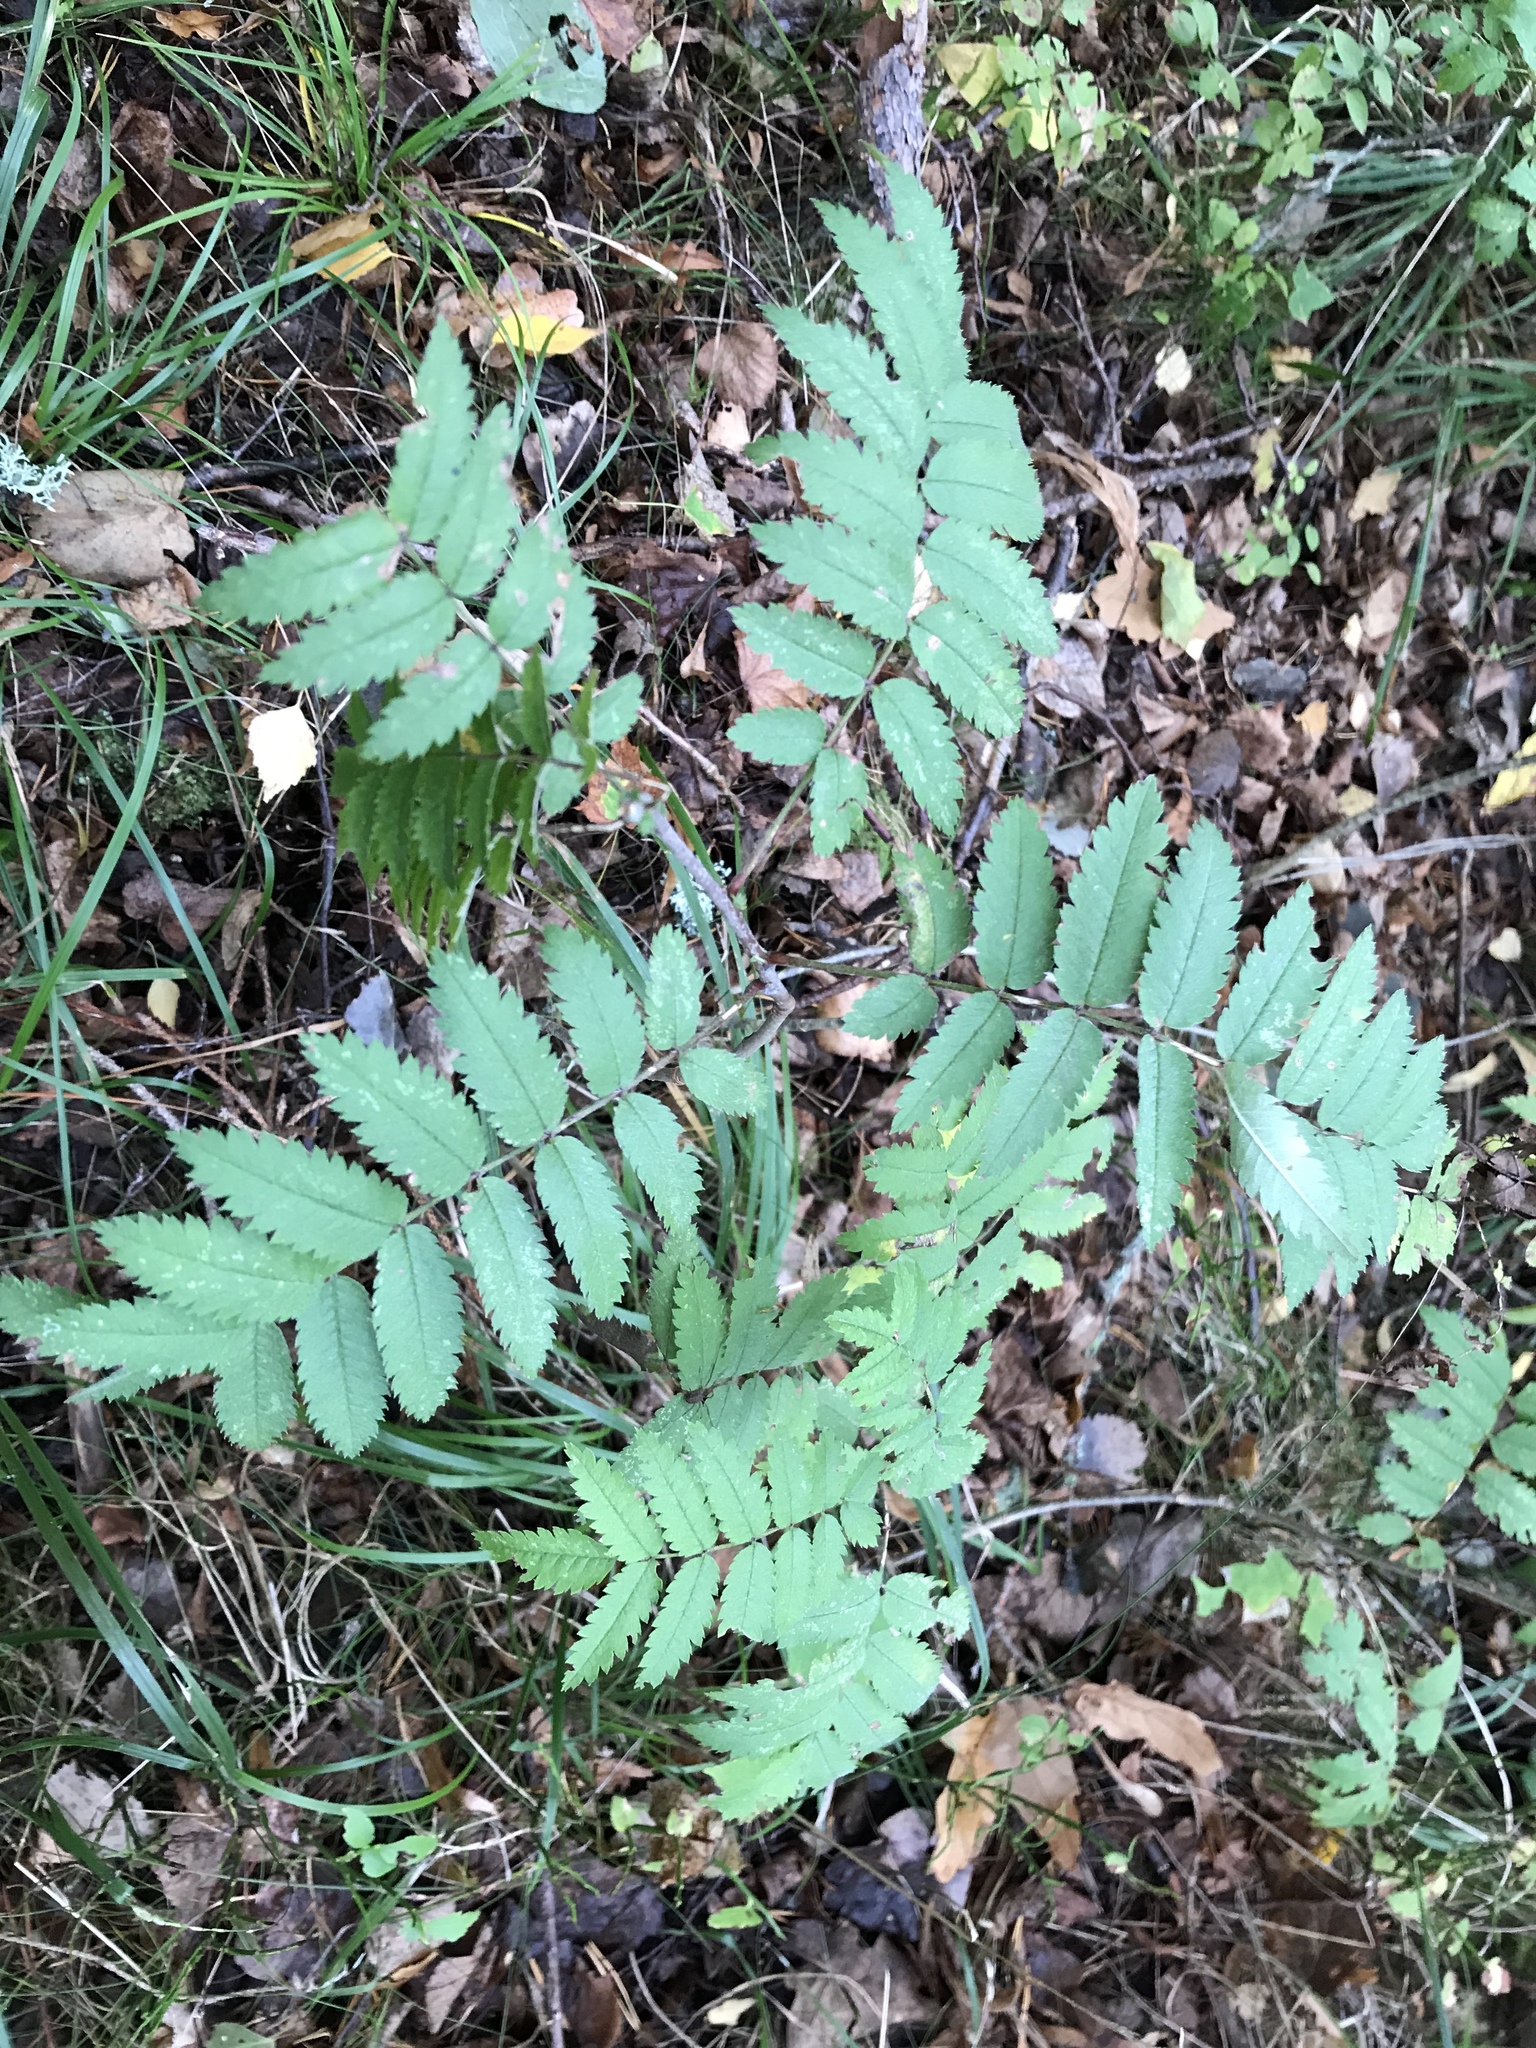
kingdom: Plantae
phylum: Tracheophyta
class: Magnoliopsida
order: Rosales
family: Rosaceae
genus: Sorbus
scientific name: Sorbus aucuparia
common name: Rowan
